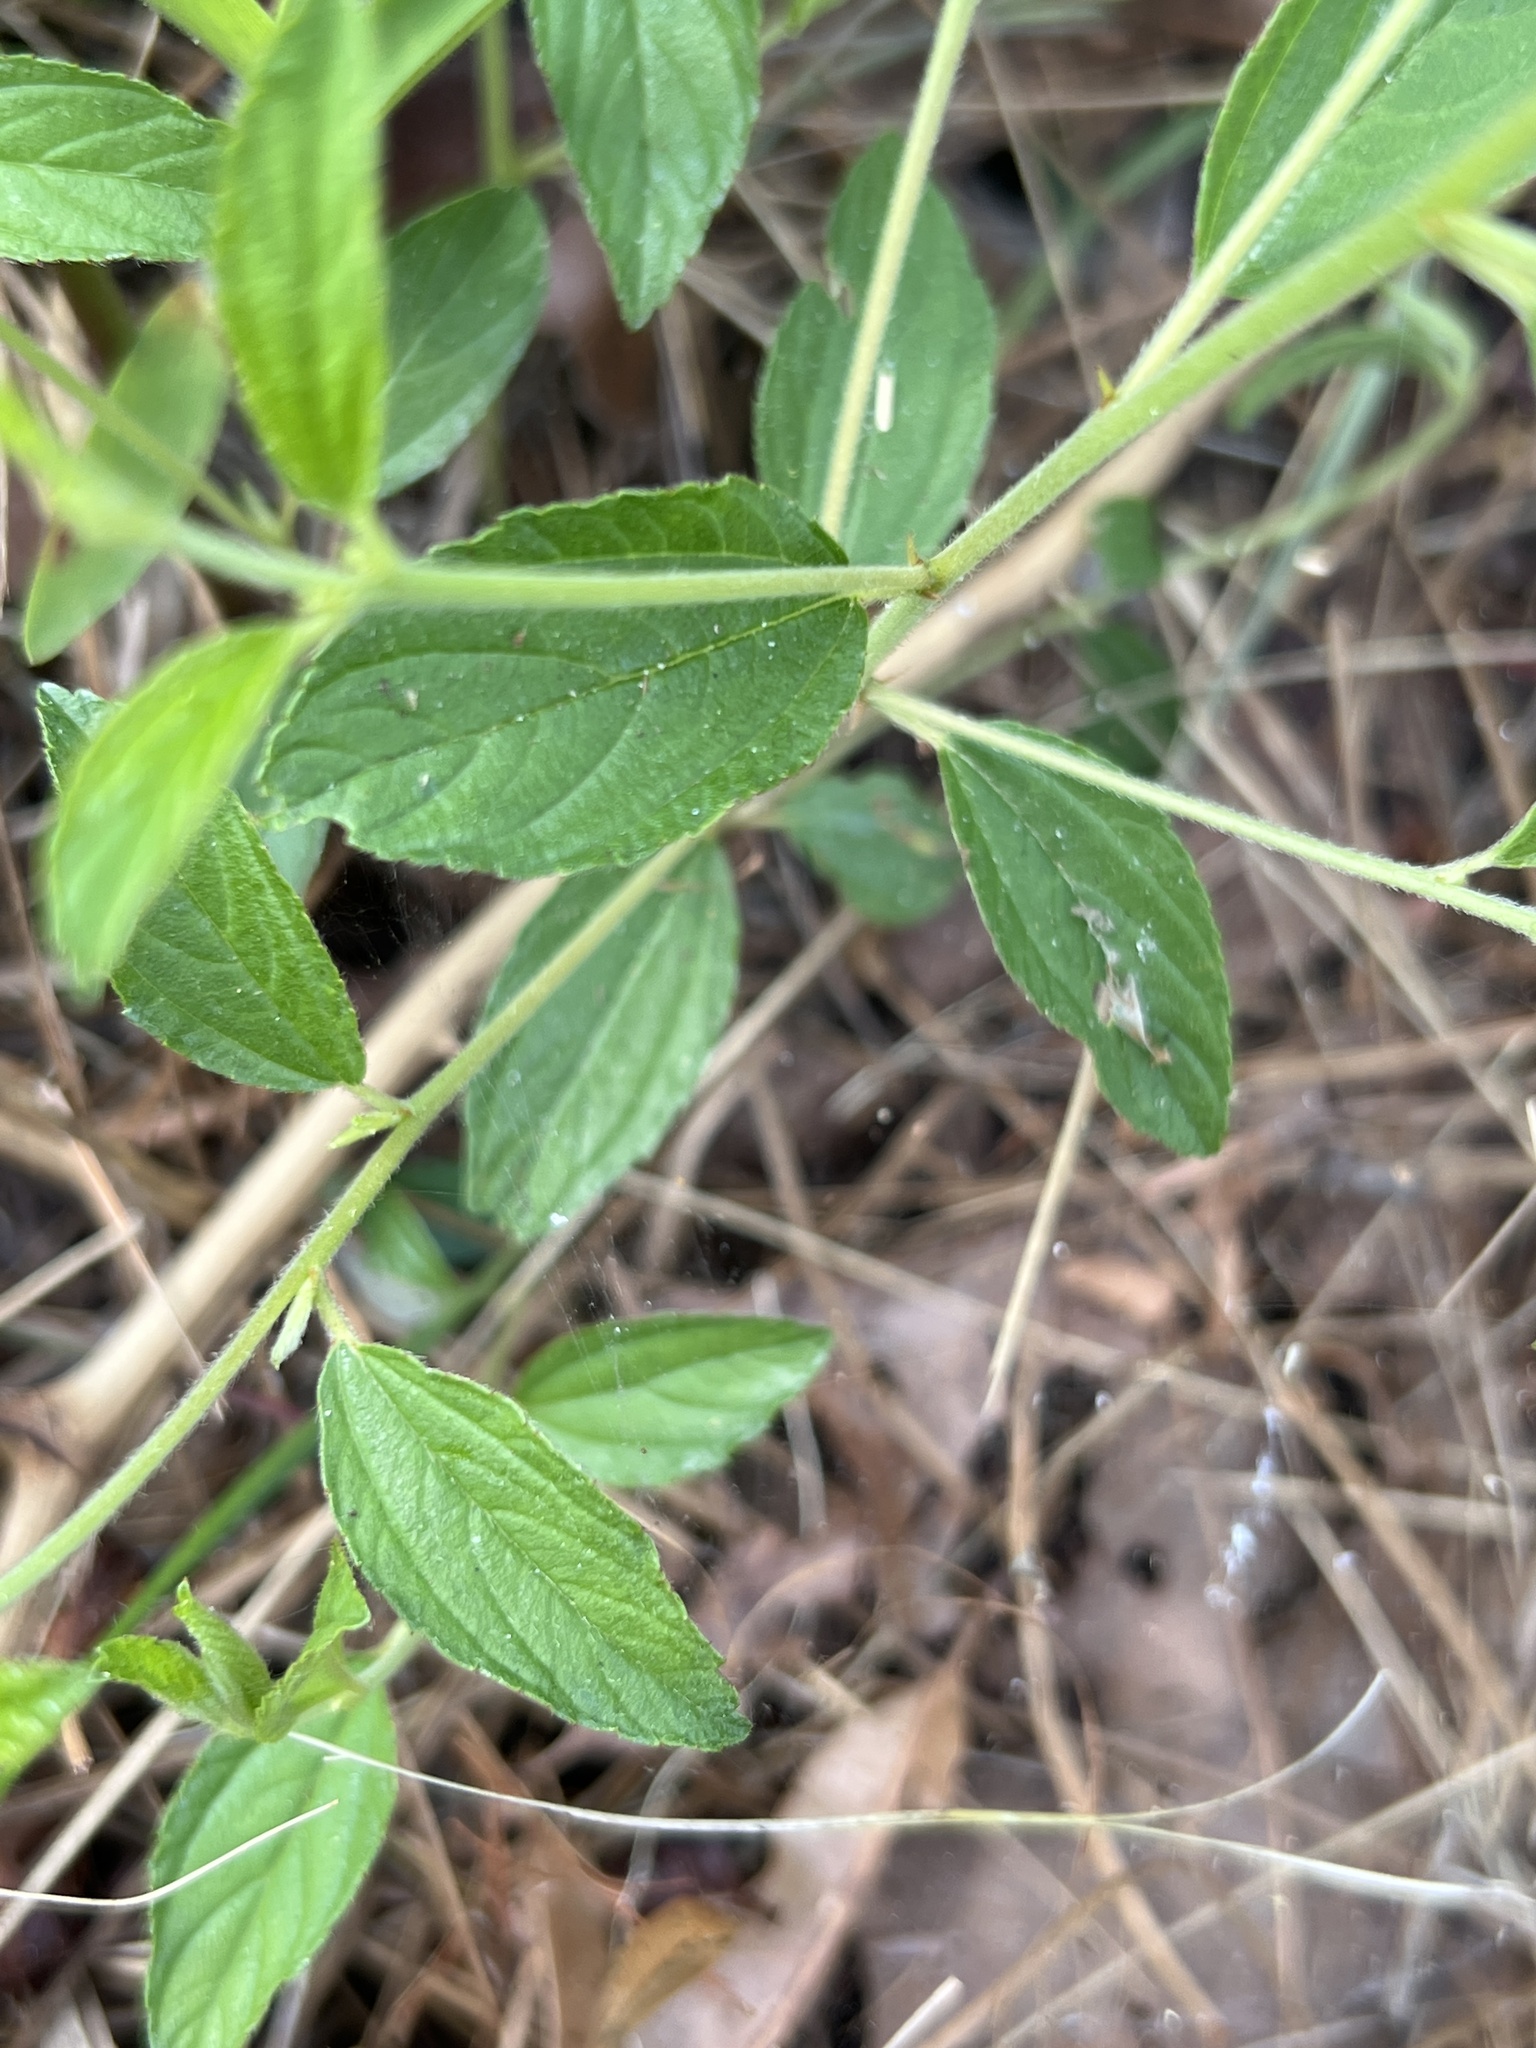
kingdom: Plantae
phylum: Tracheophyta
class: Magnoliopsida
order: Rosales
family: Rhamnaceae
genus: Ceanothus
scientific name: Ceanothus americanus
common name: Redroot
